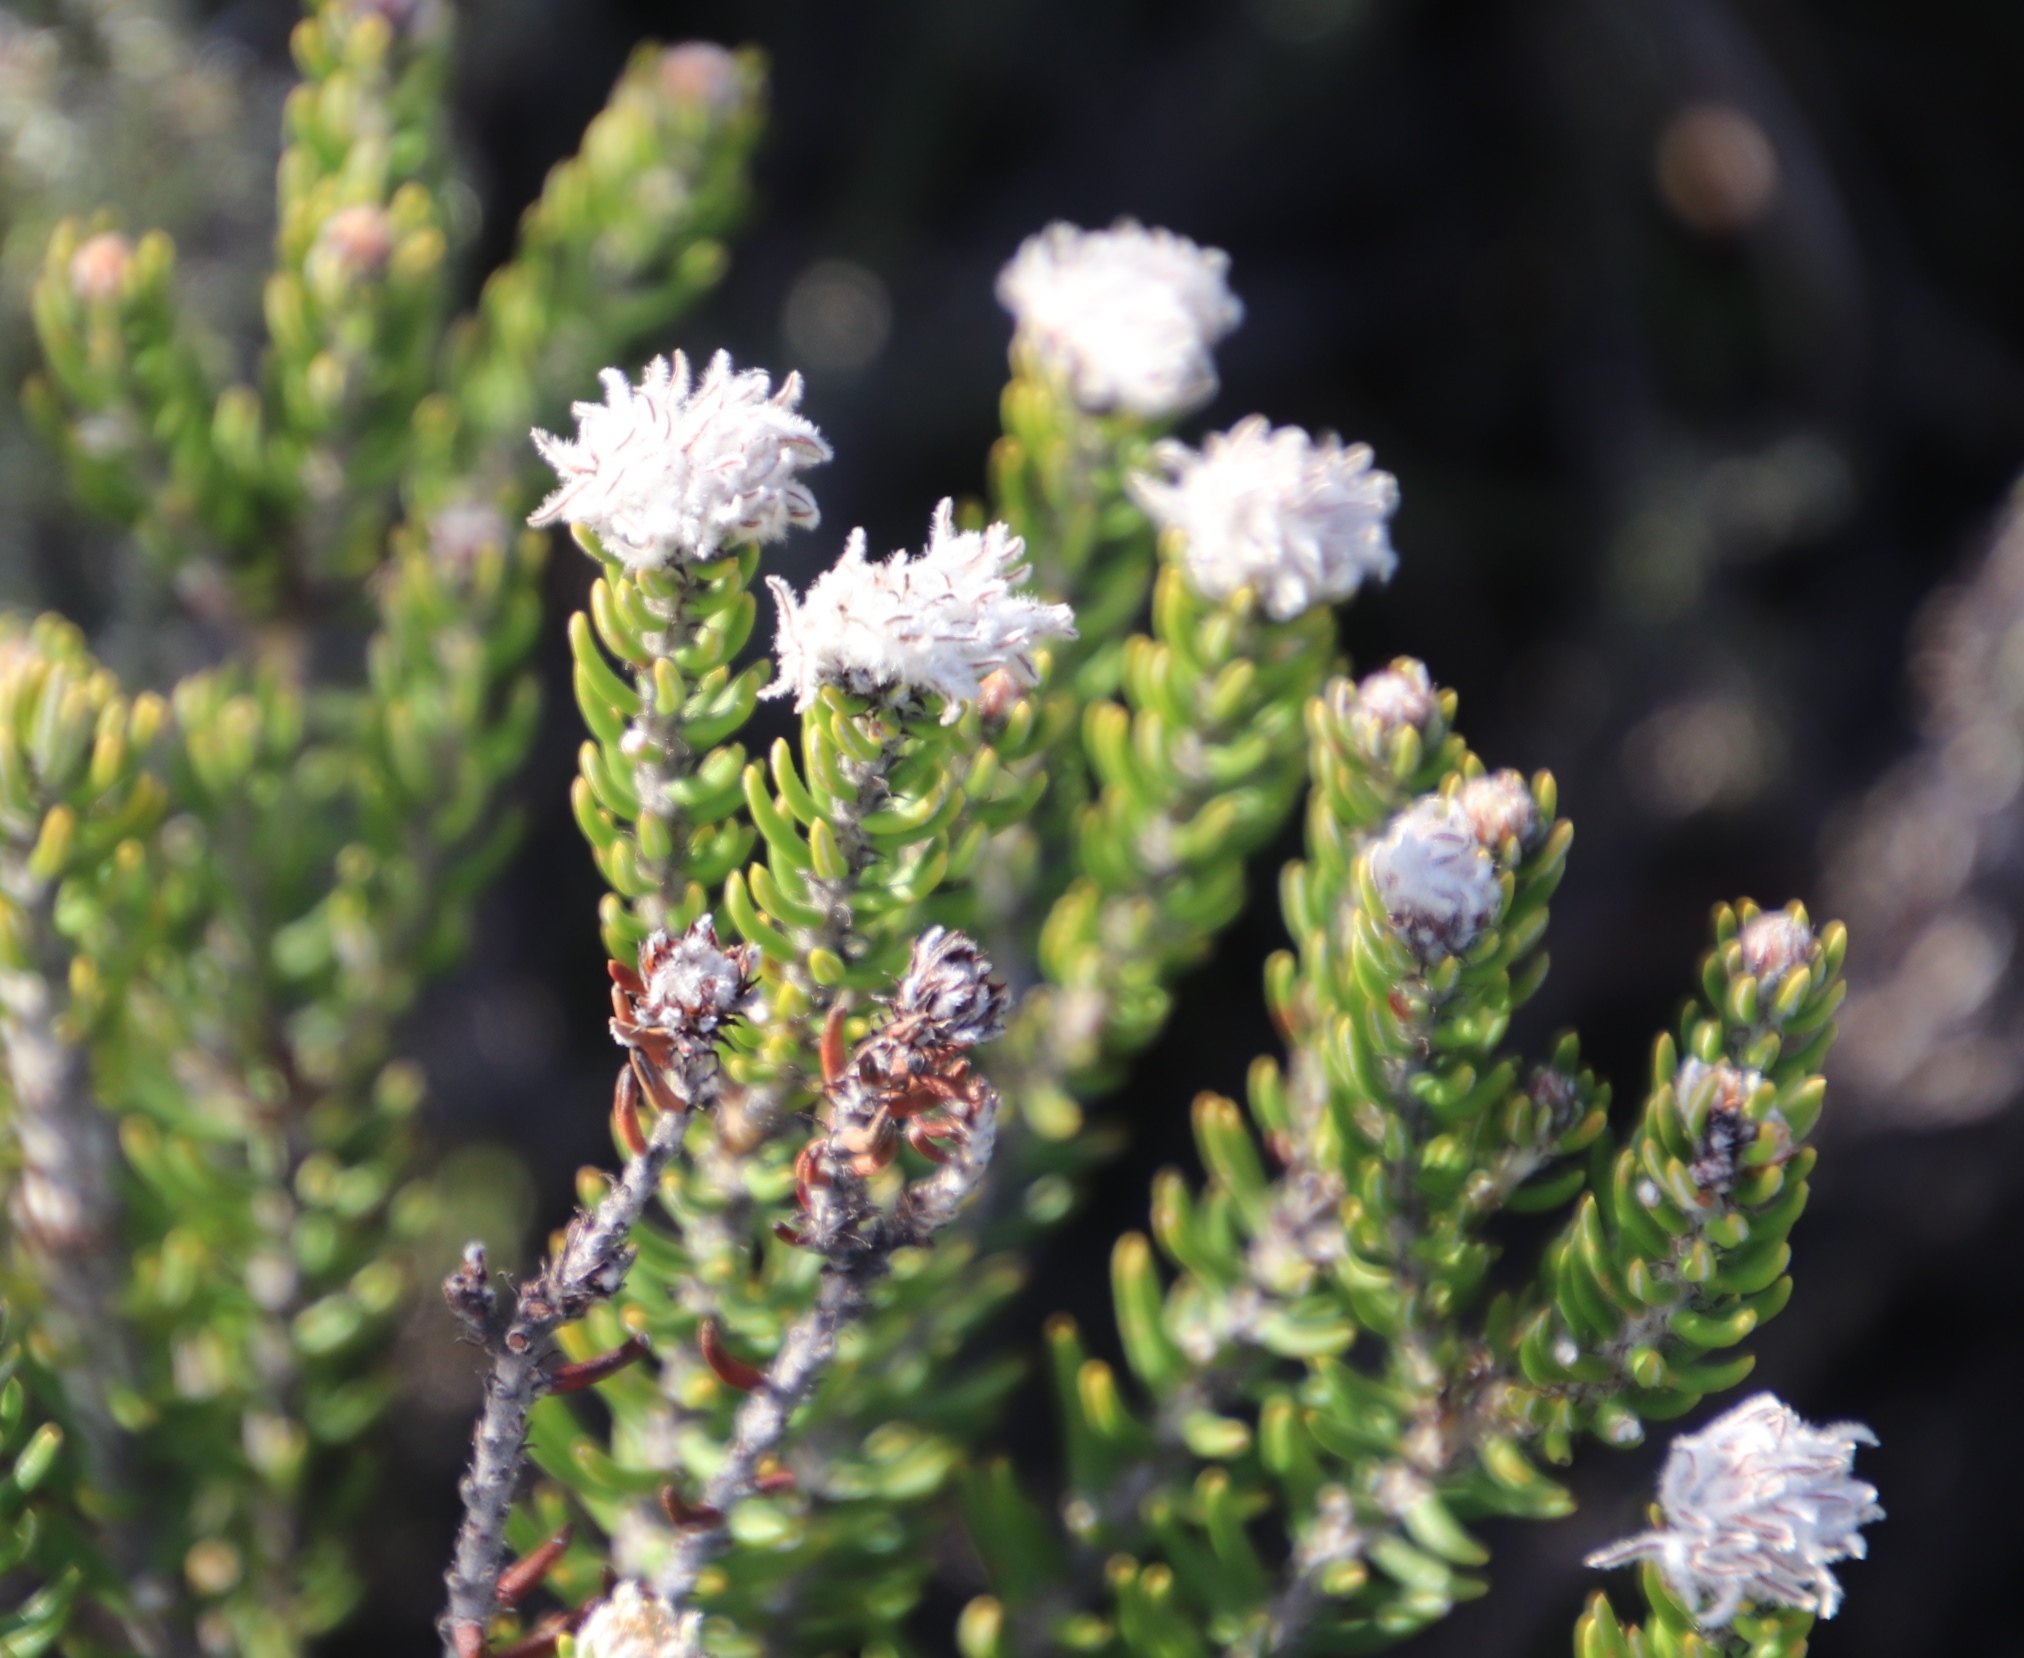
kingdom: Plantae
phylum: Tracheophyta
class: Magnoliopsida
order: Rosales
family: Rhamnaceae
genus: Trichocephalus
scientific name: Trichocephalus stipularis
